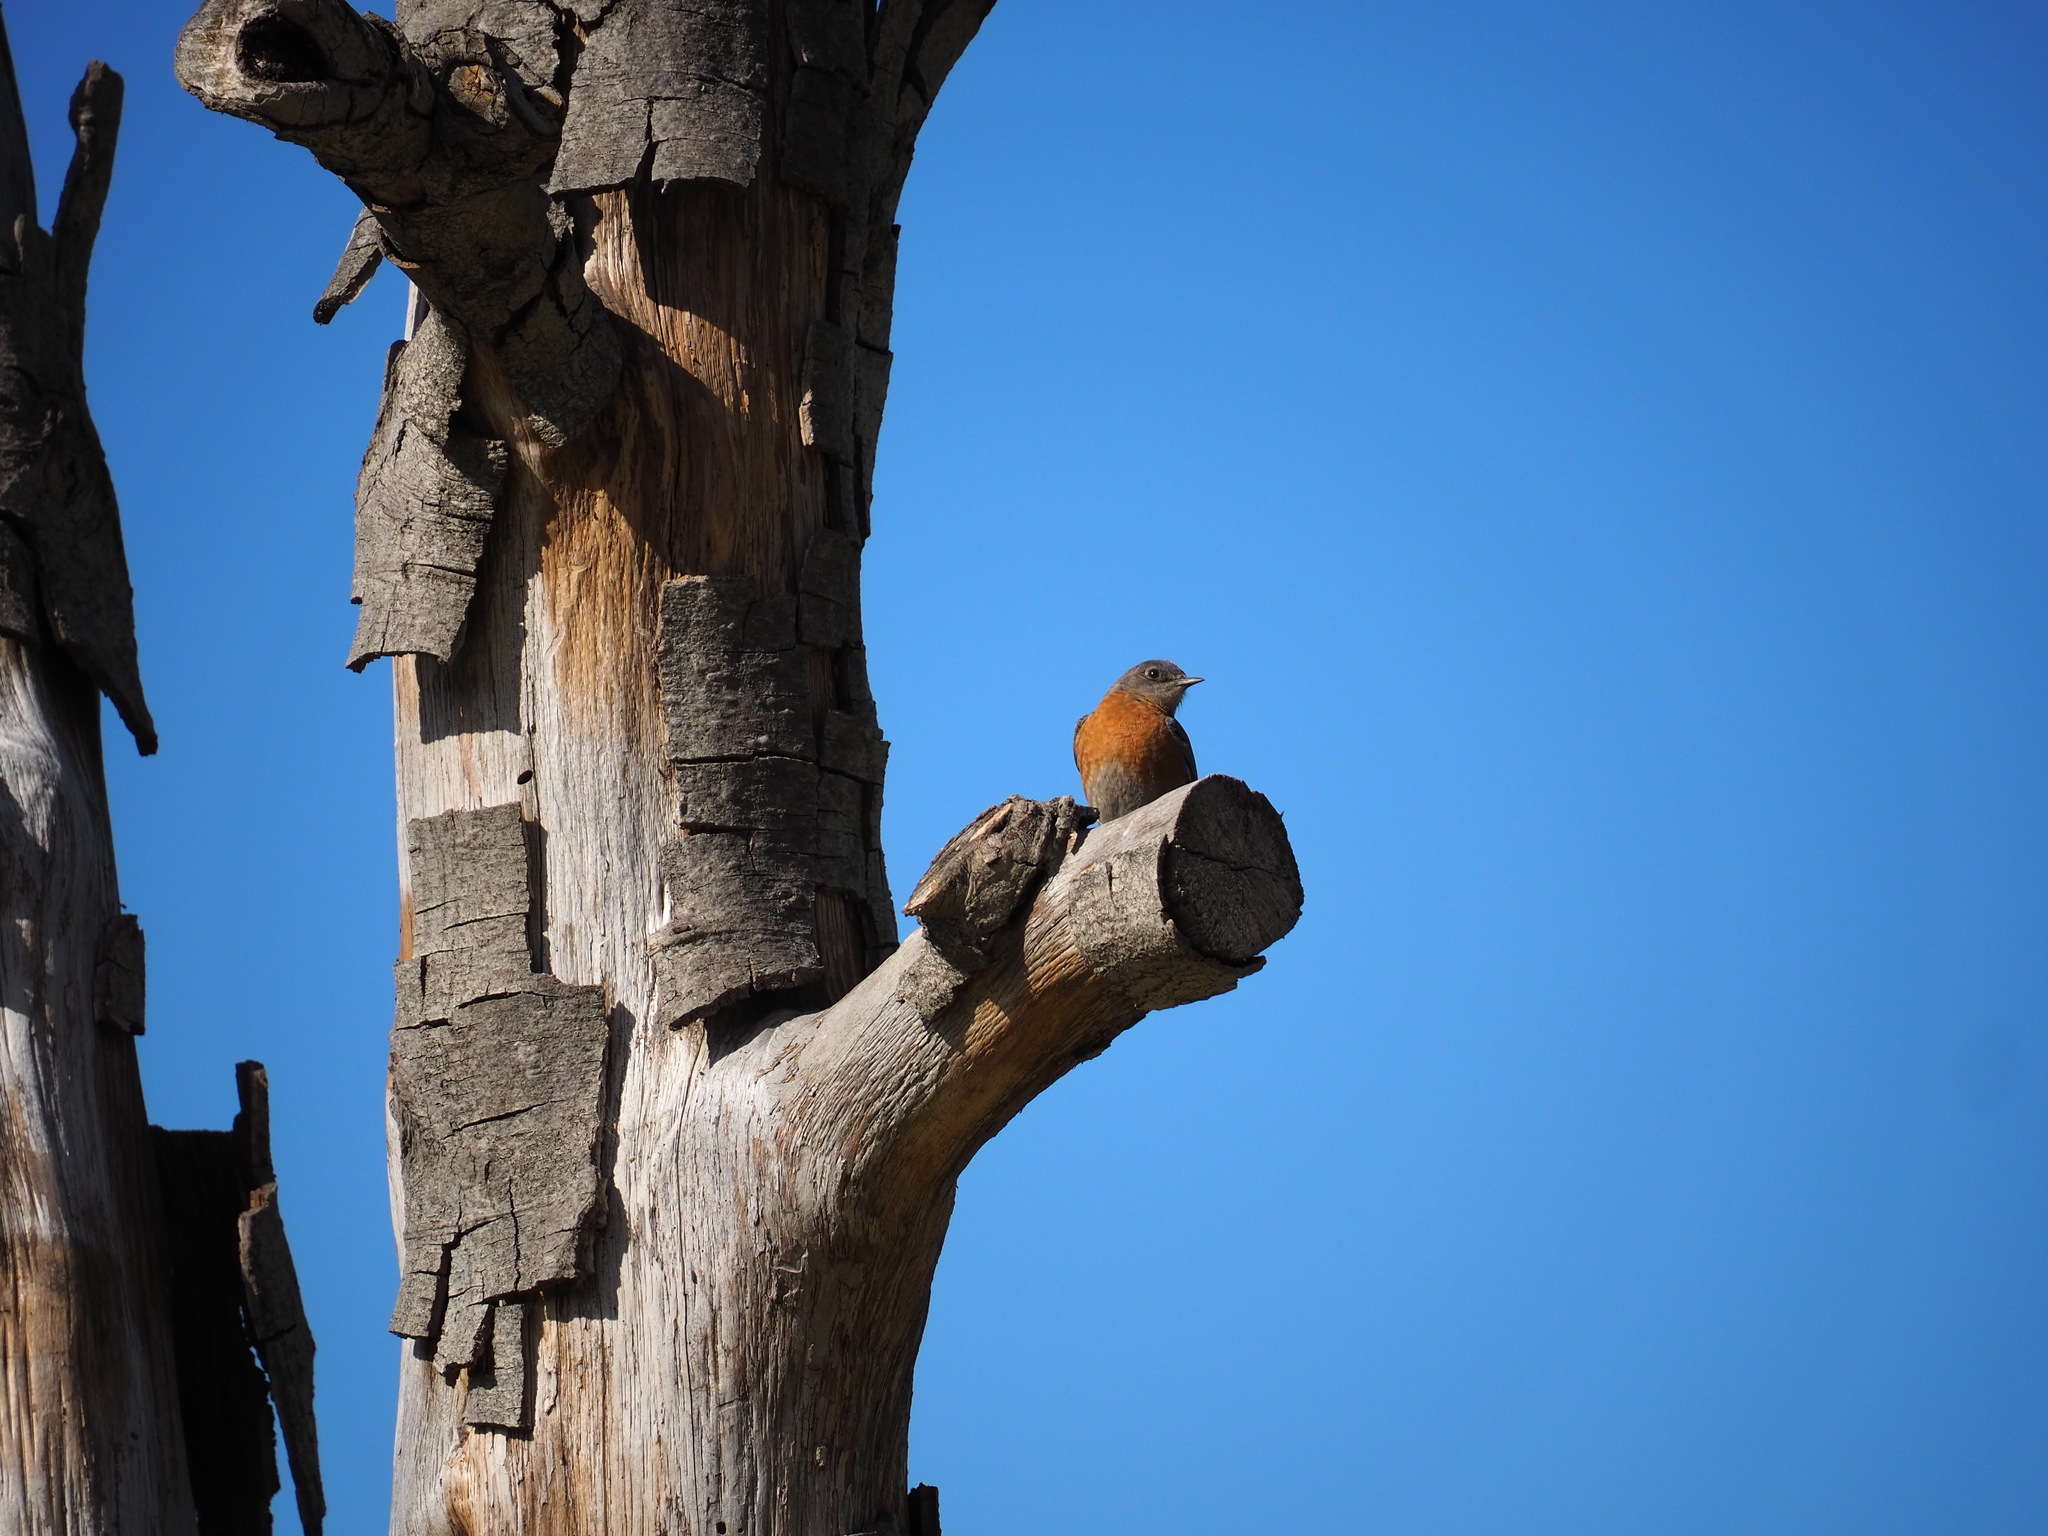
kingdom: Animalia
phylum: Chordata
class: Aves
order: Passeriformes
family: Turdidae
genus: Sialia
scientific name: Sialia mexicana
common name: Western bluebird
